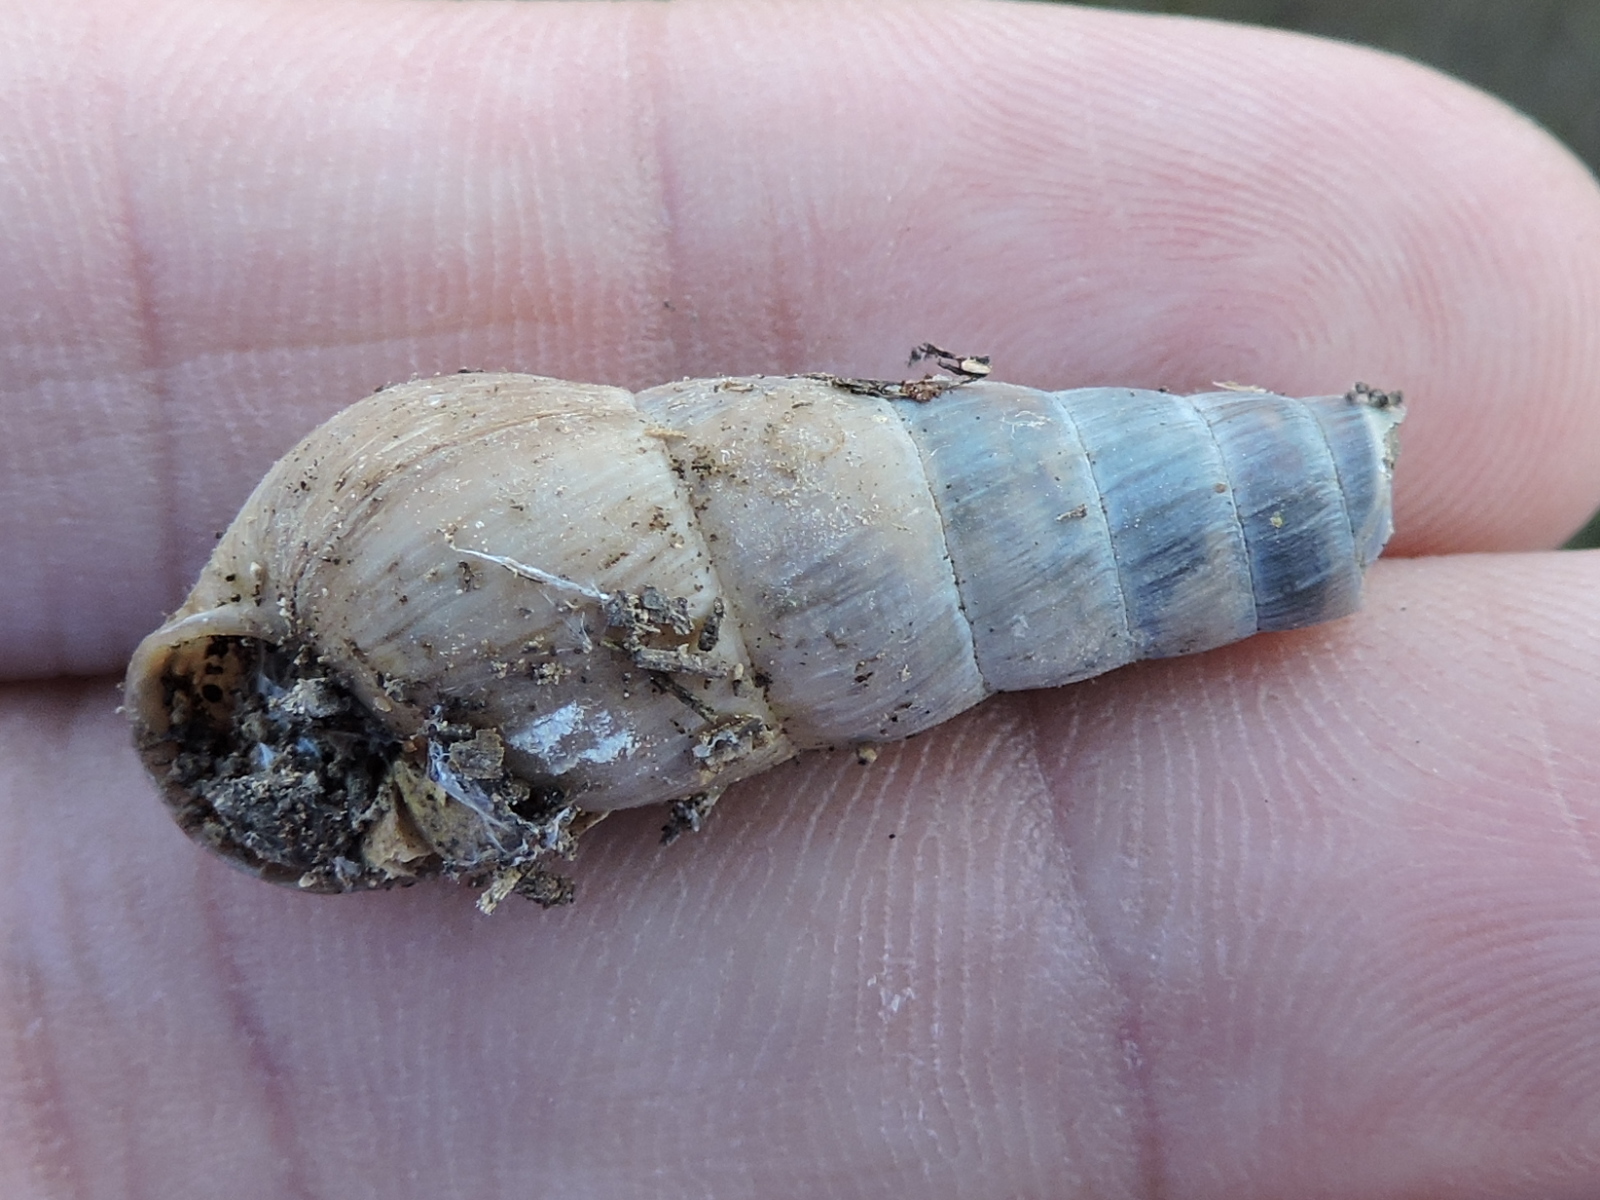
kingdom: Animalia
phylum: Mollusca
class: Gastropoda
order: Stylommatophora
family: Achatinidae
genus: Rumina
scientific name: Rumina decollata
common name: Decollate snail
